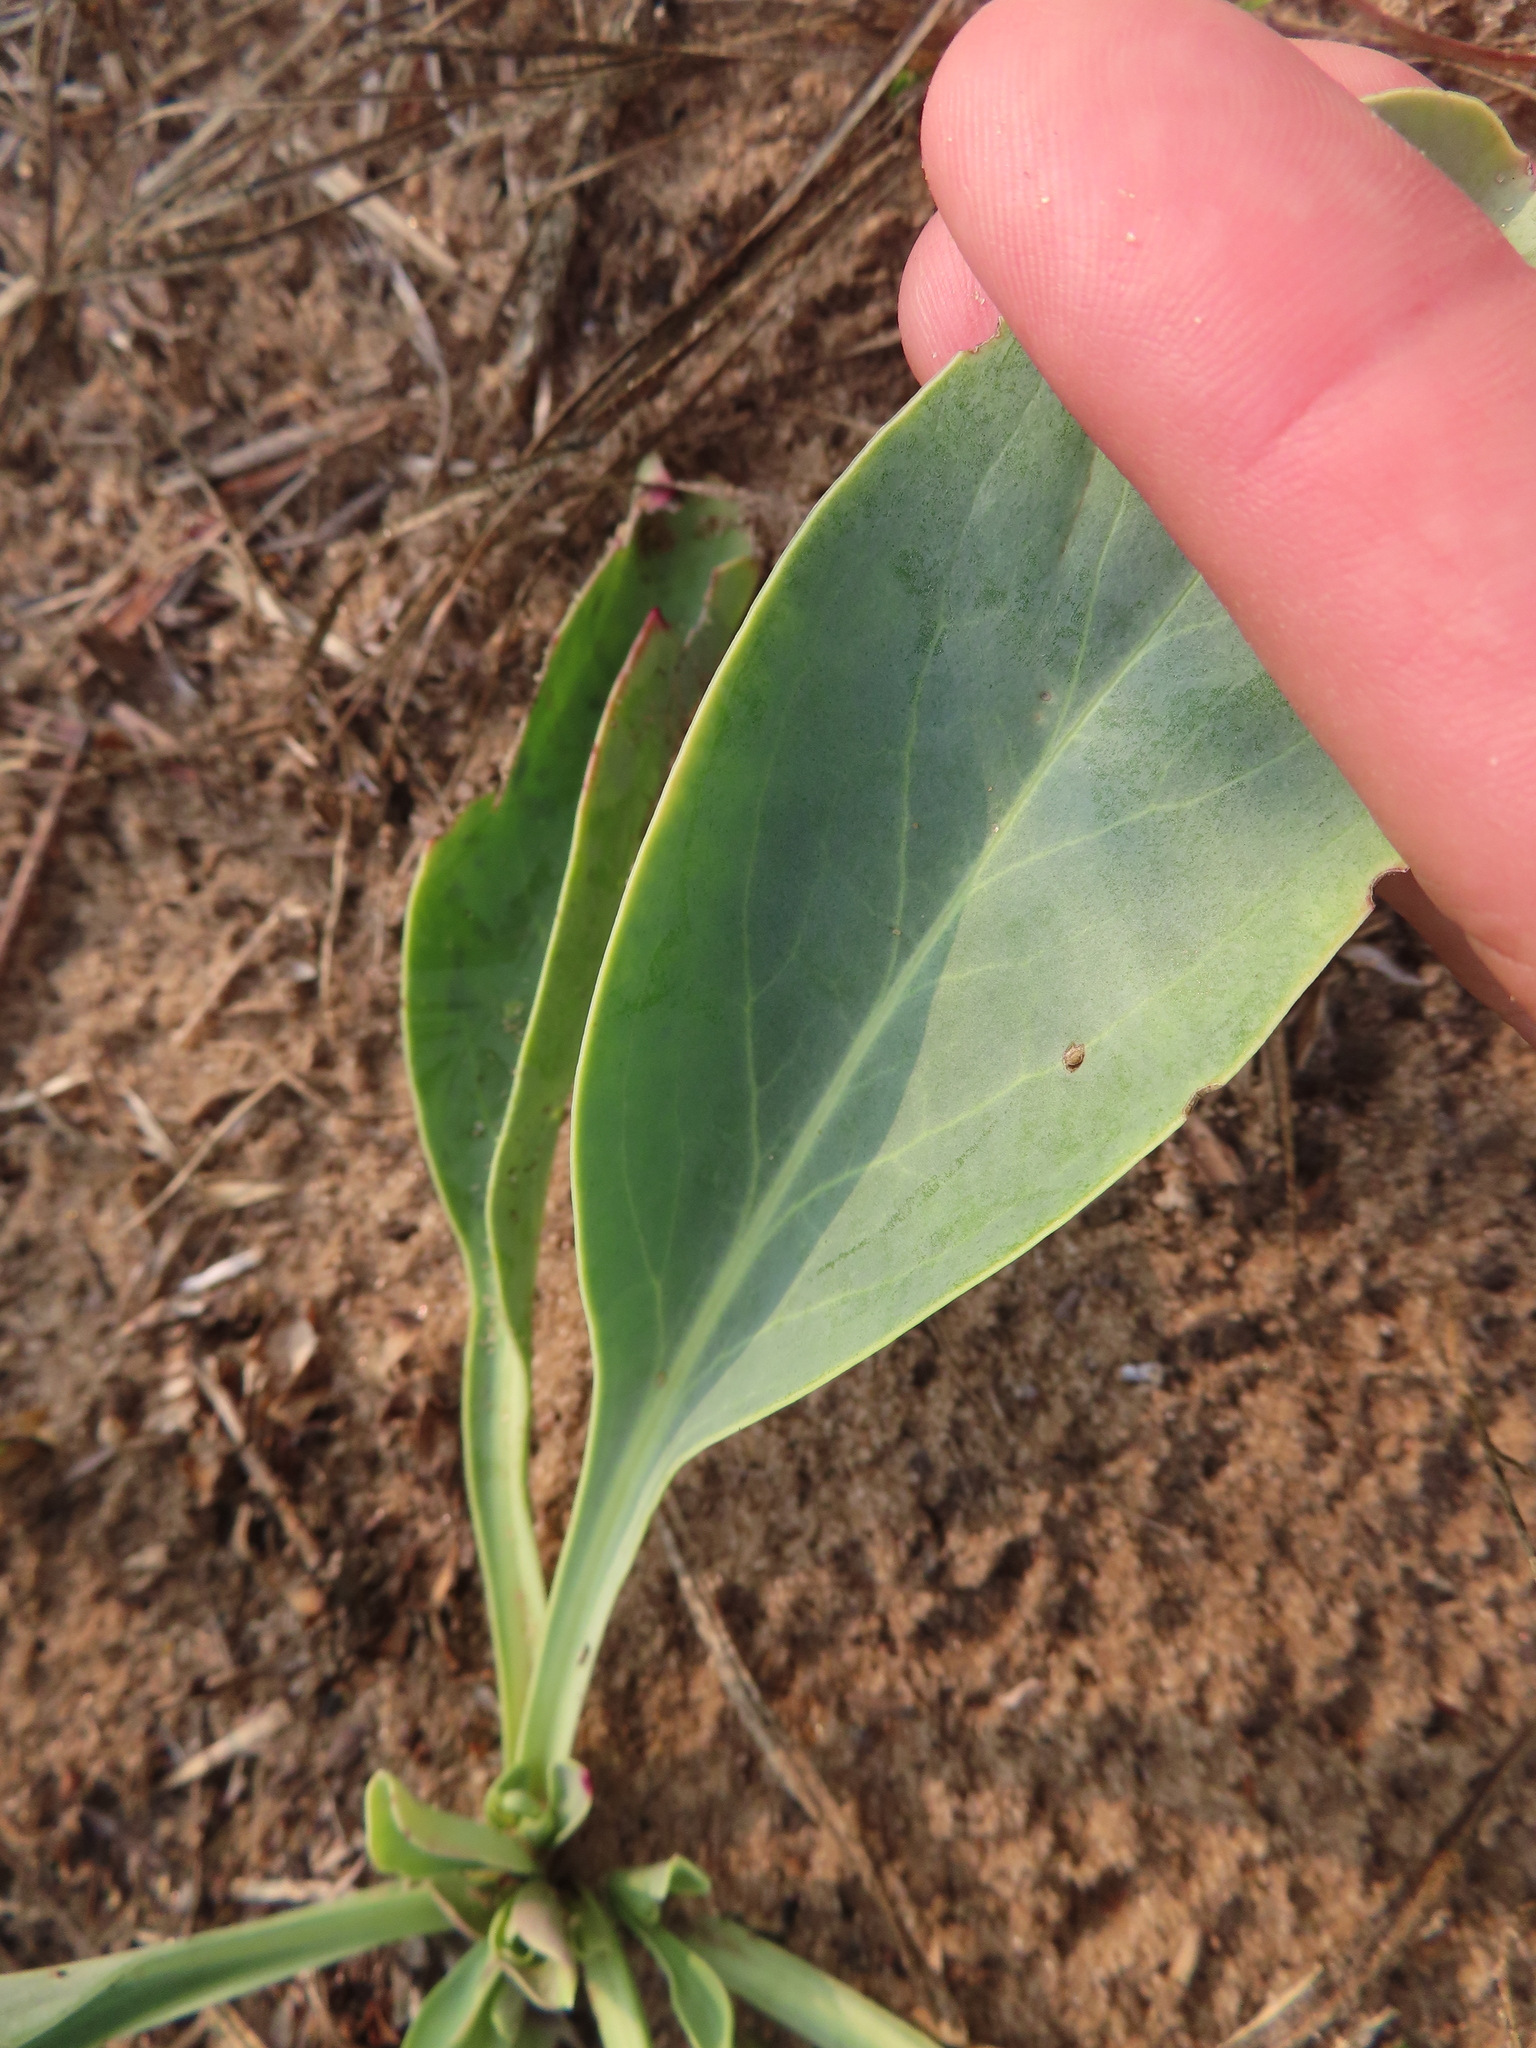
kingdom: Plantae
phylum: Tracheophyta
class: Magnoliopsida
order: Lamiales
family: Plantaginaceae
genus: Penstemon
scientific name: Penstemon
